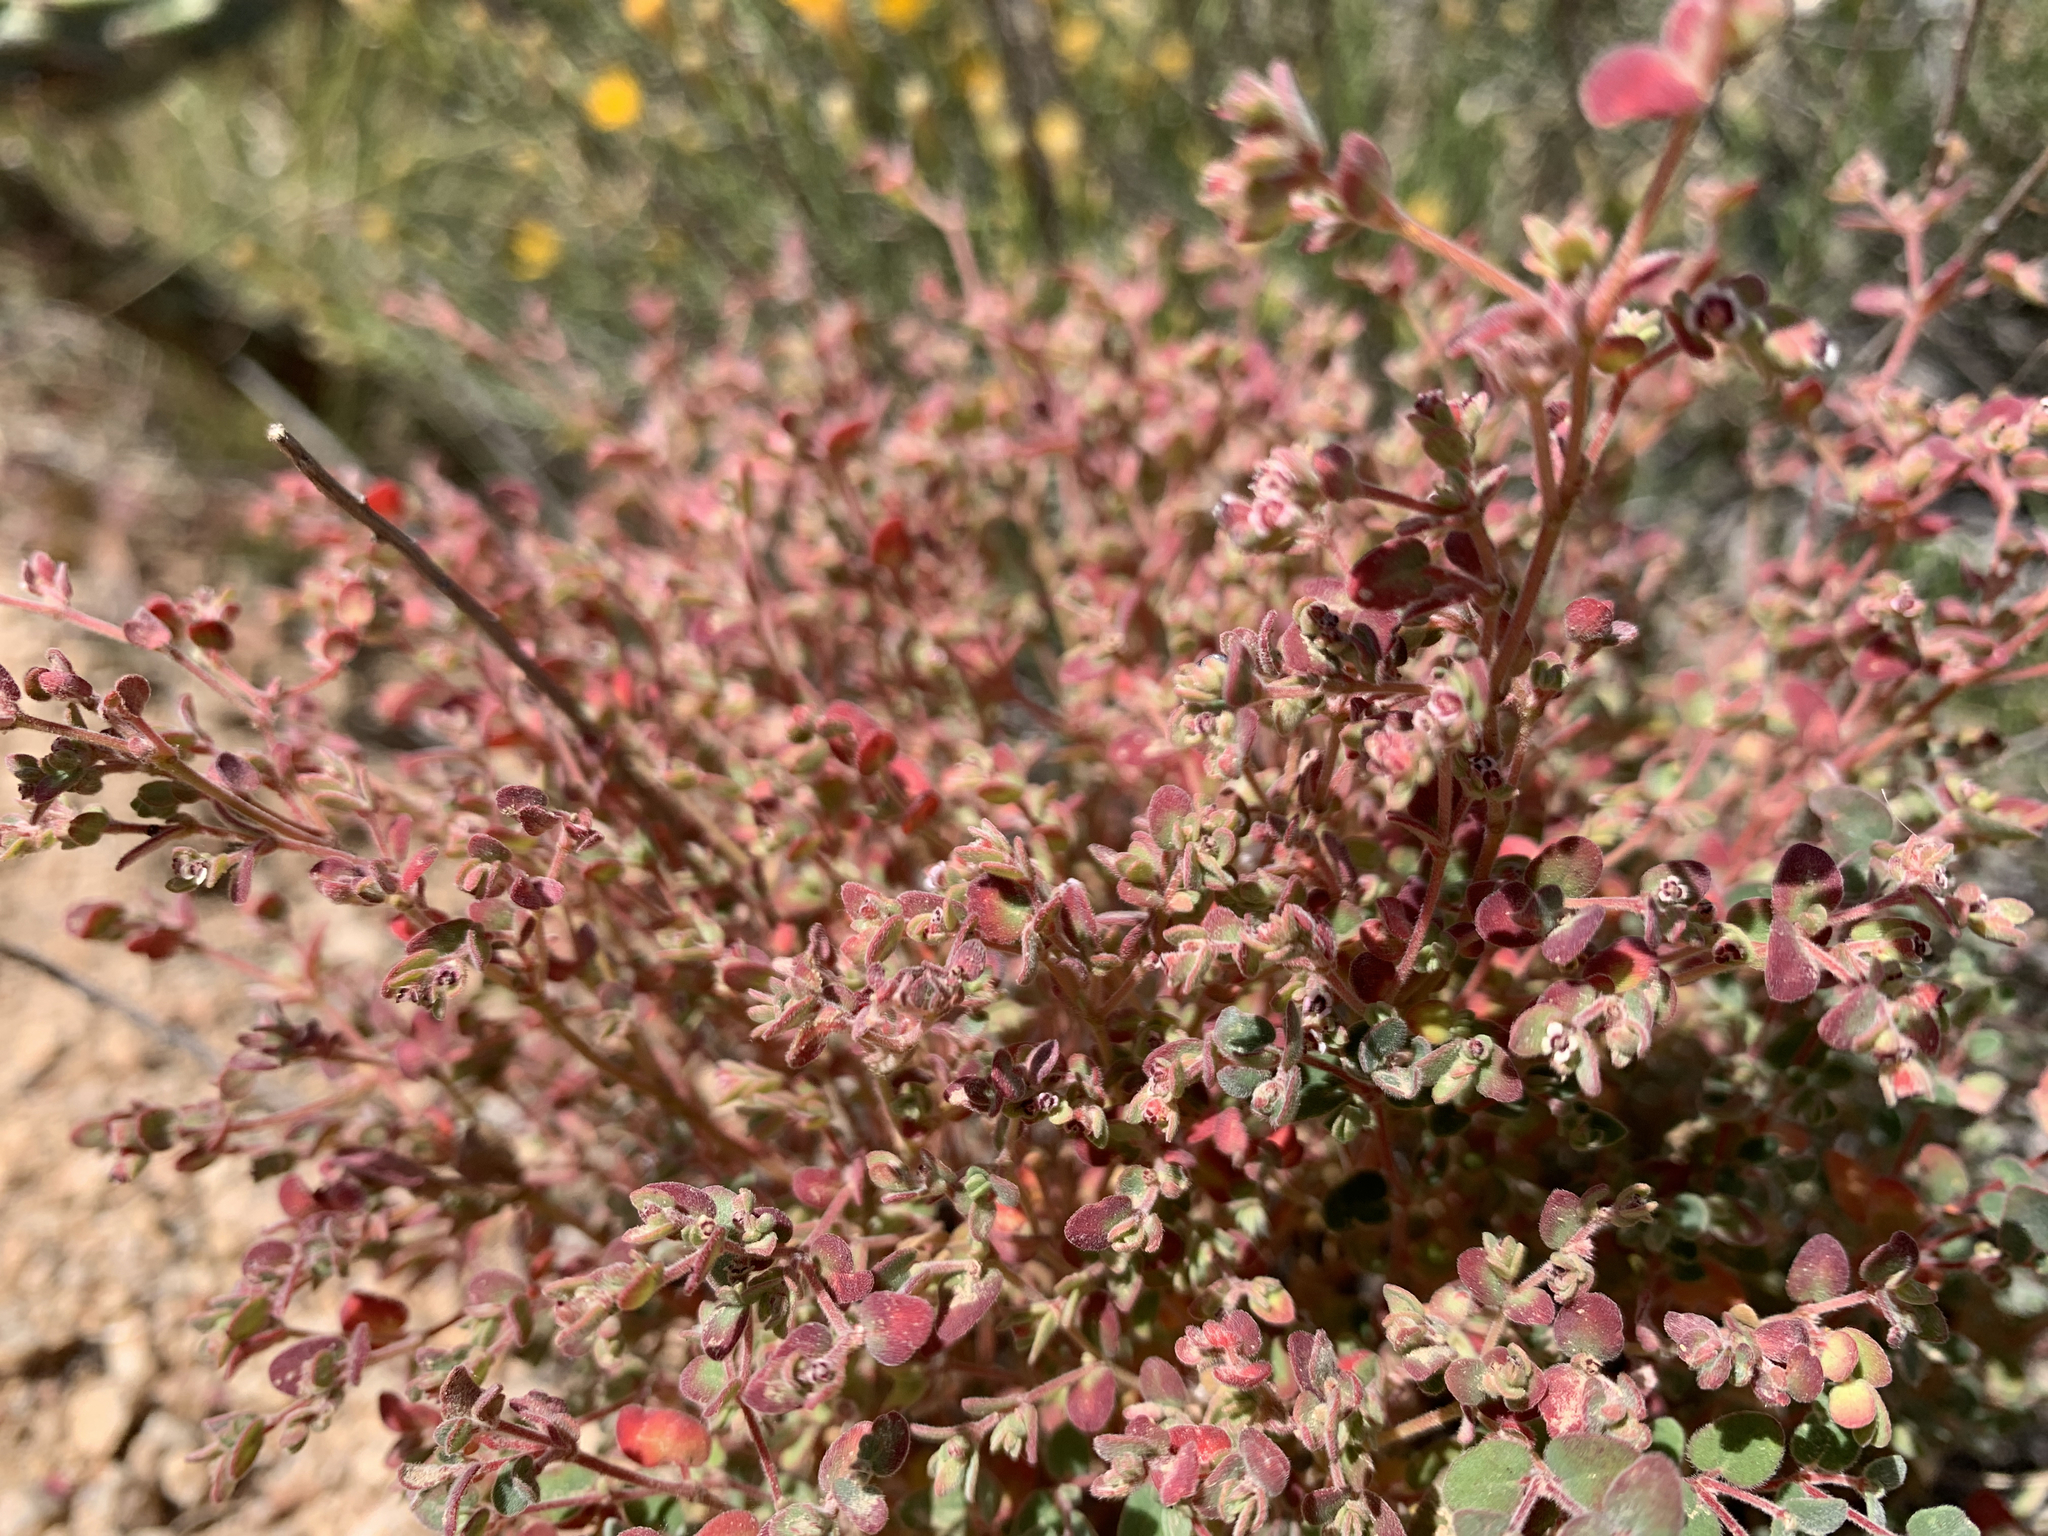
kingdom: Plantae
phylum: Tracheophyta
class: Magnoliopsida
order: Malpighiales
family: Euphorbiaceae
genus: Euphorbia
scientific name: Euphorbia melanadenia
